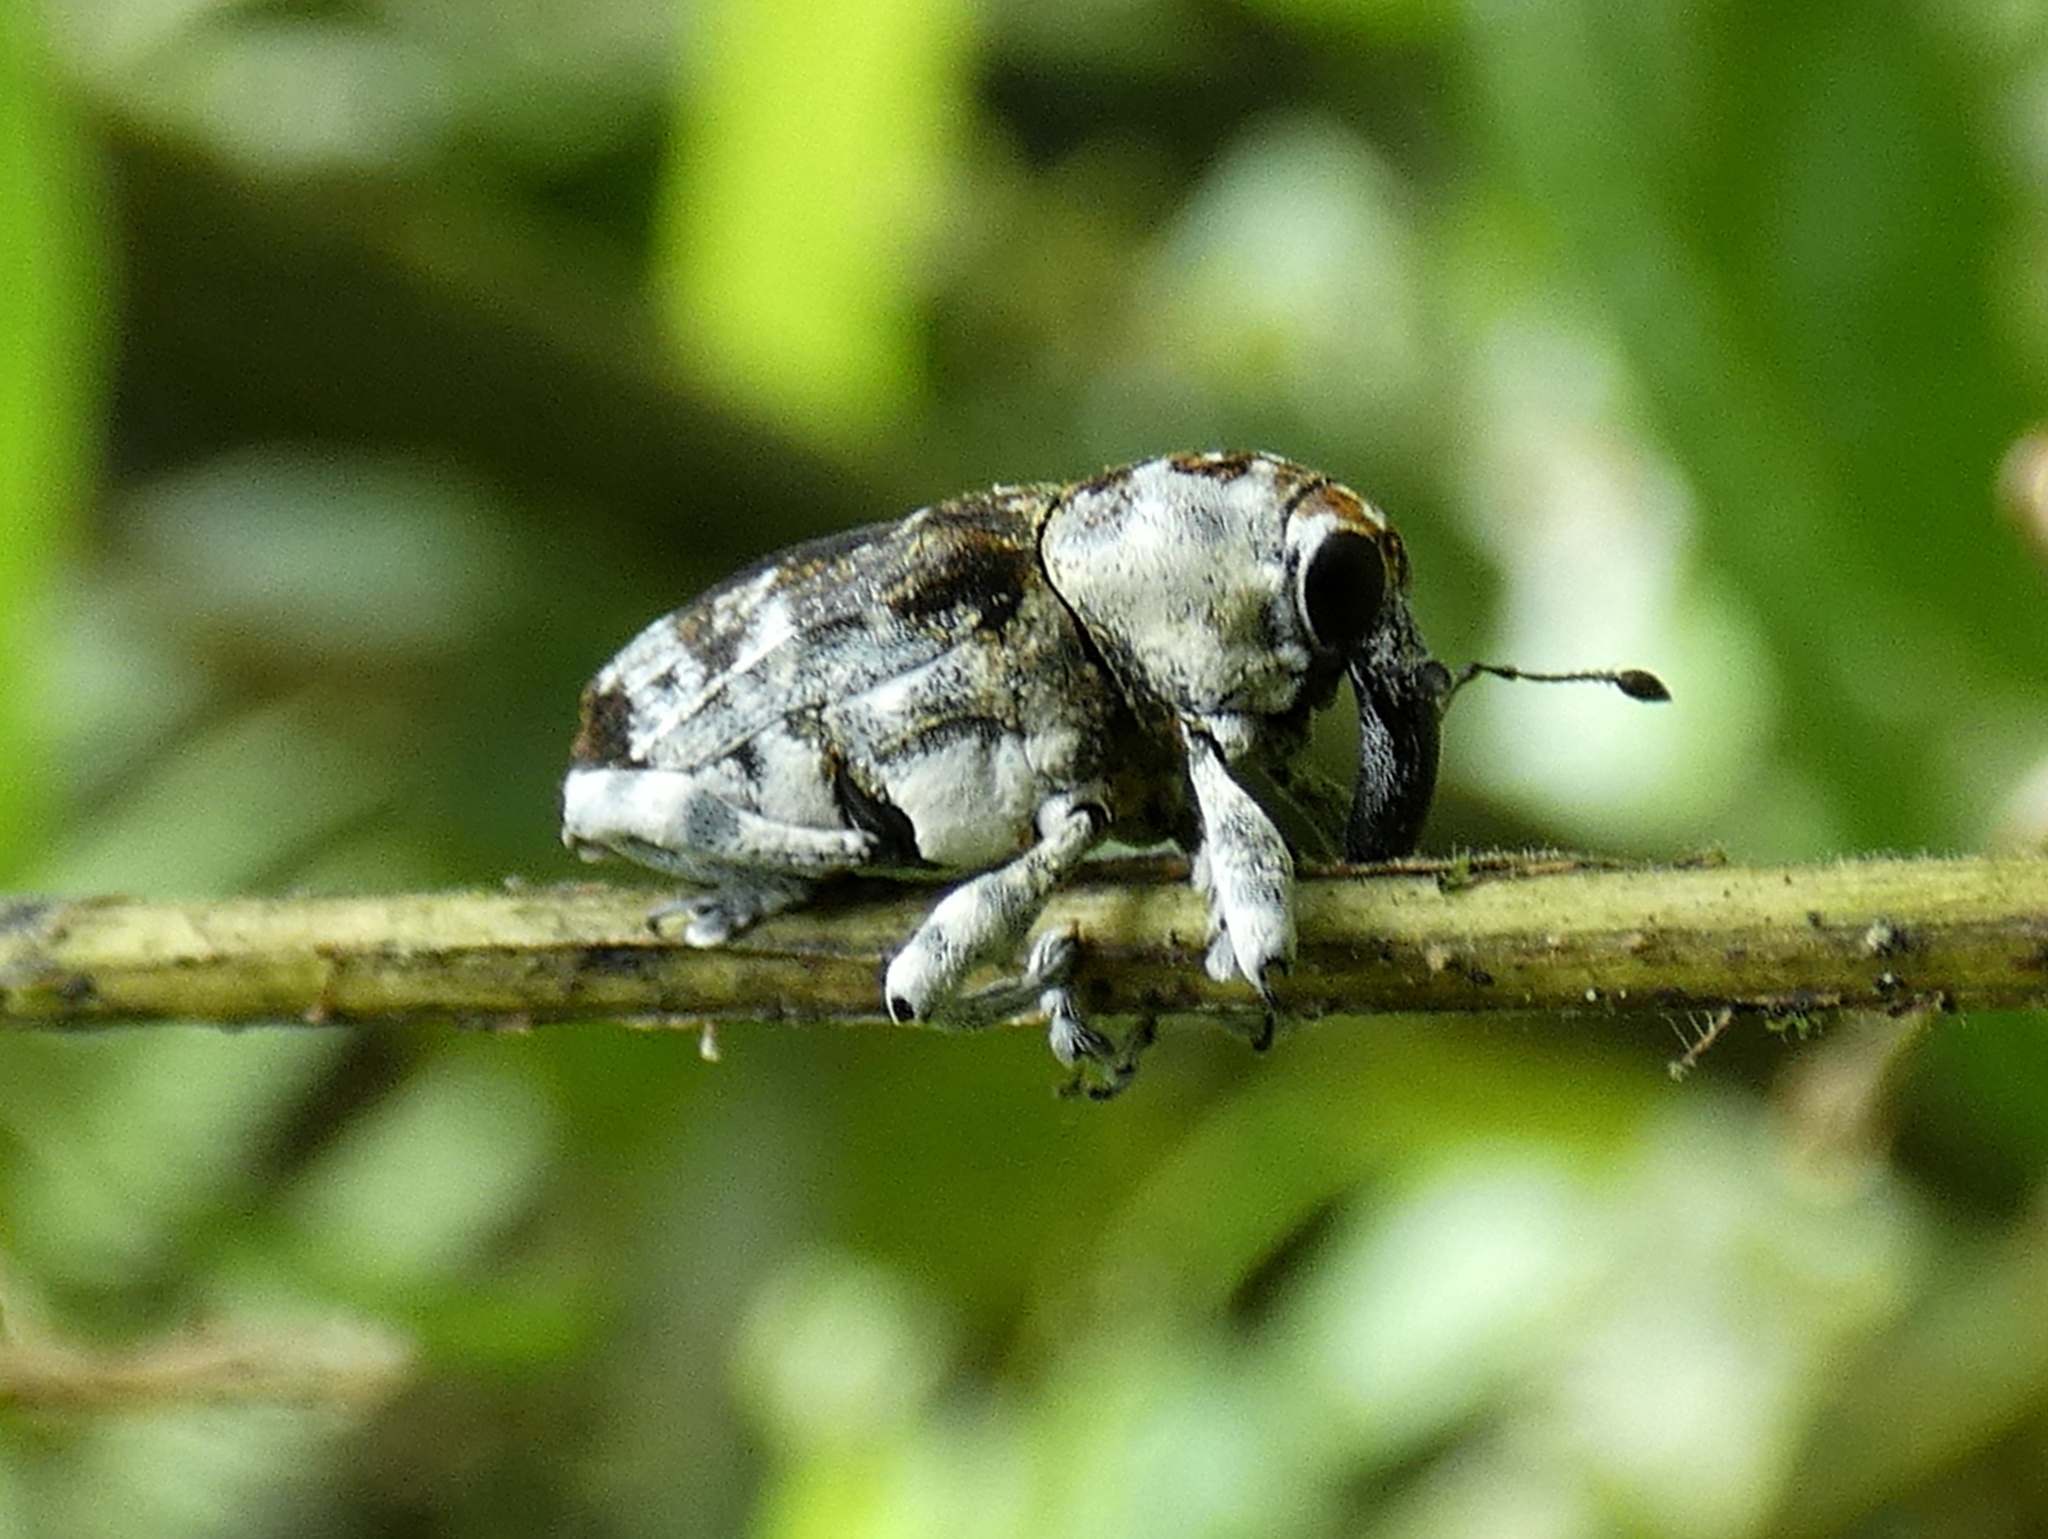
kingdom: Animalia
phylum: Arthropoda
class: Insecta
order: Coleoptera
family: Curculionidae
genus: Peridinetus
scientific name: Peridinetus irroratus
